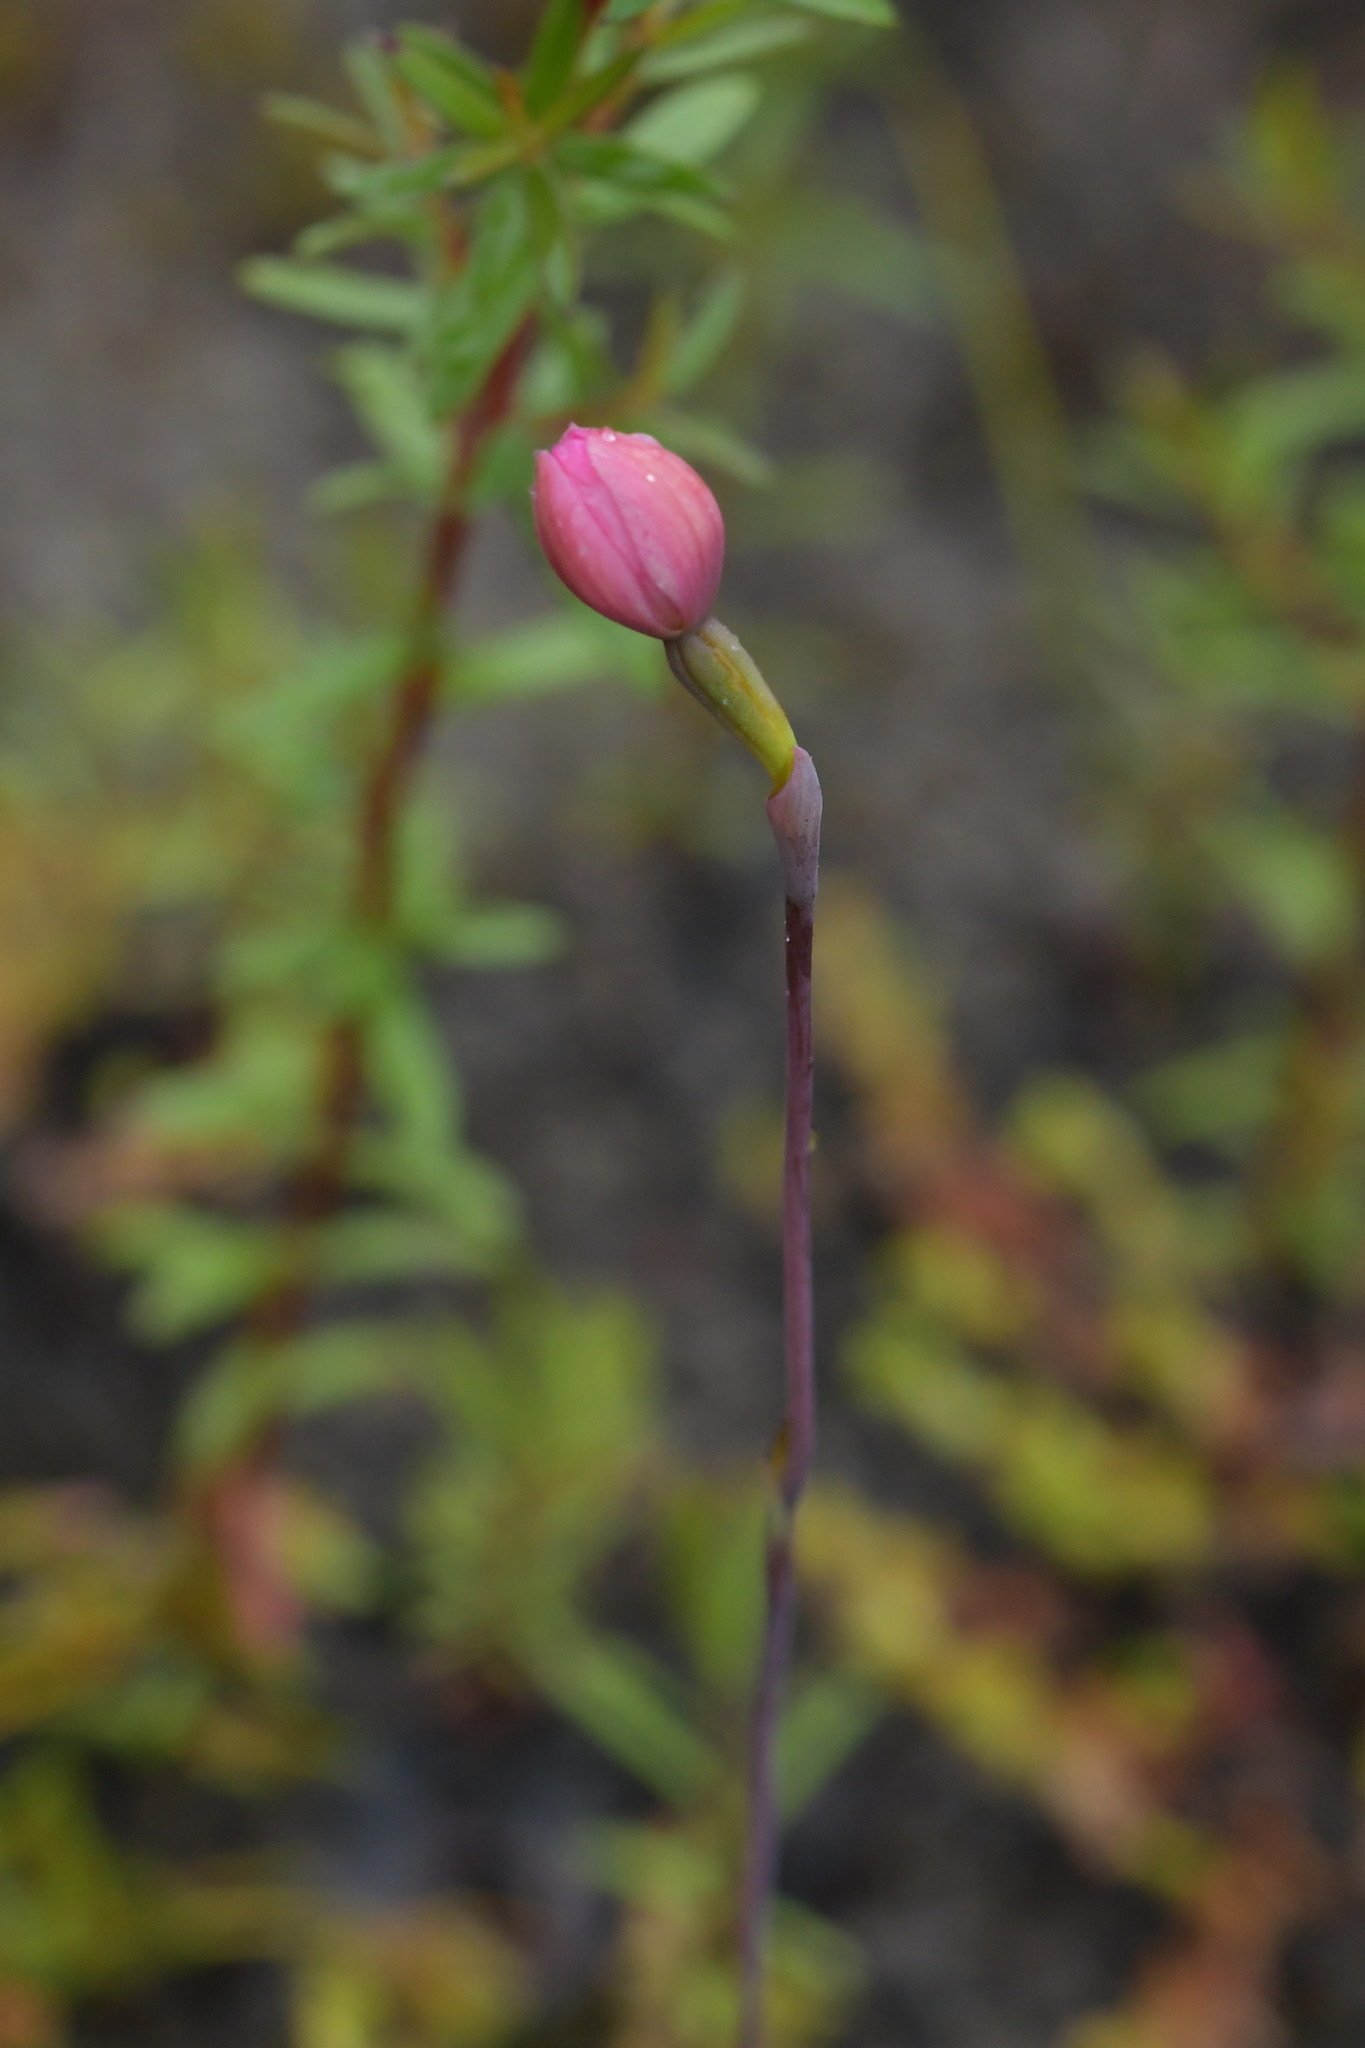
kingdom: Plantae
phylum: Tracheophyta
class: Liliopsida
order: Asparagales
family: Orchidaceae
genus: Thelymitra
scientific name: Thelymitra carnea
